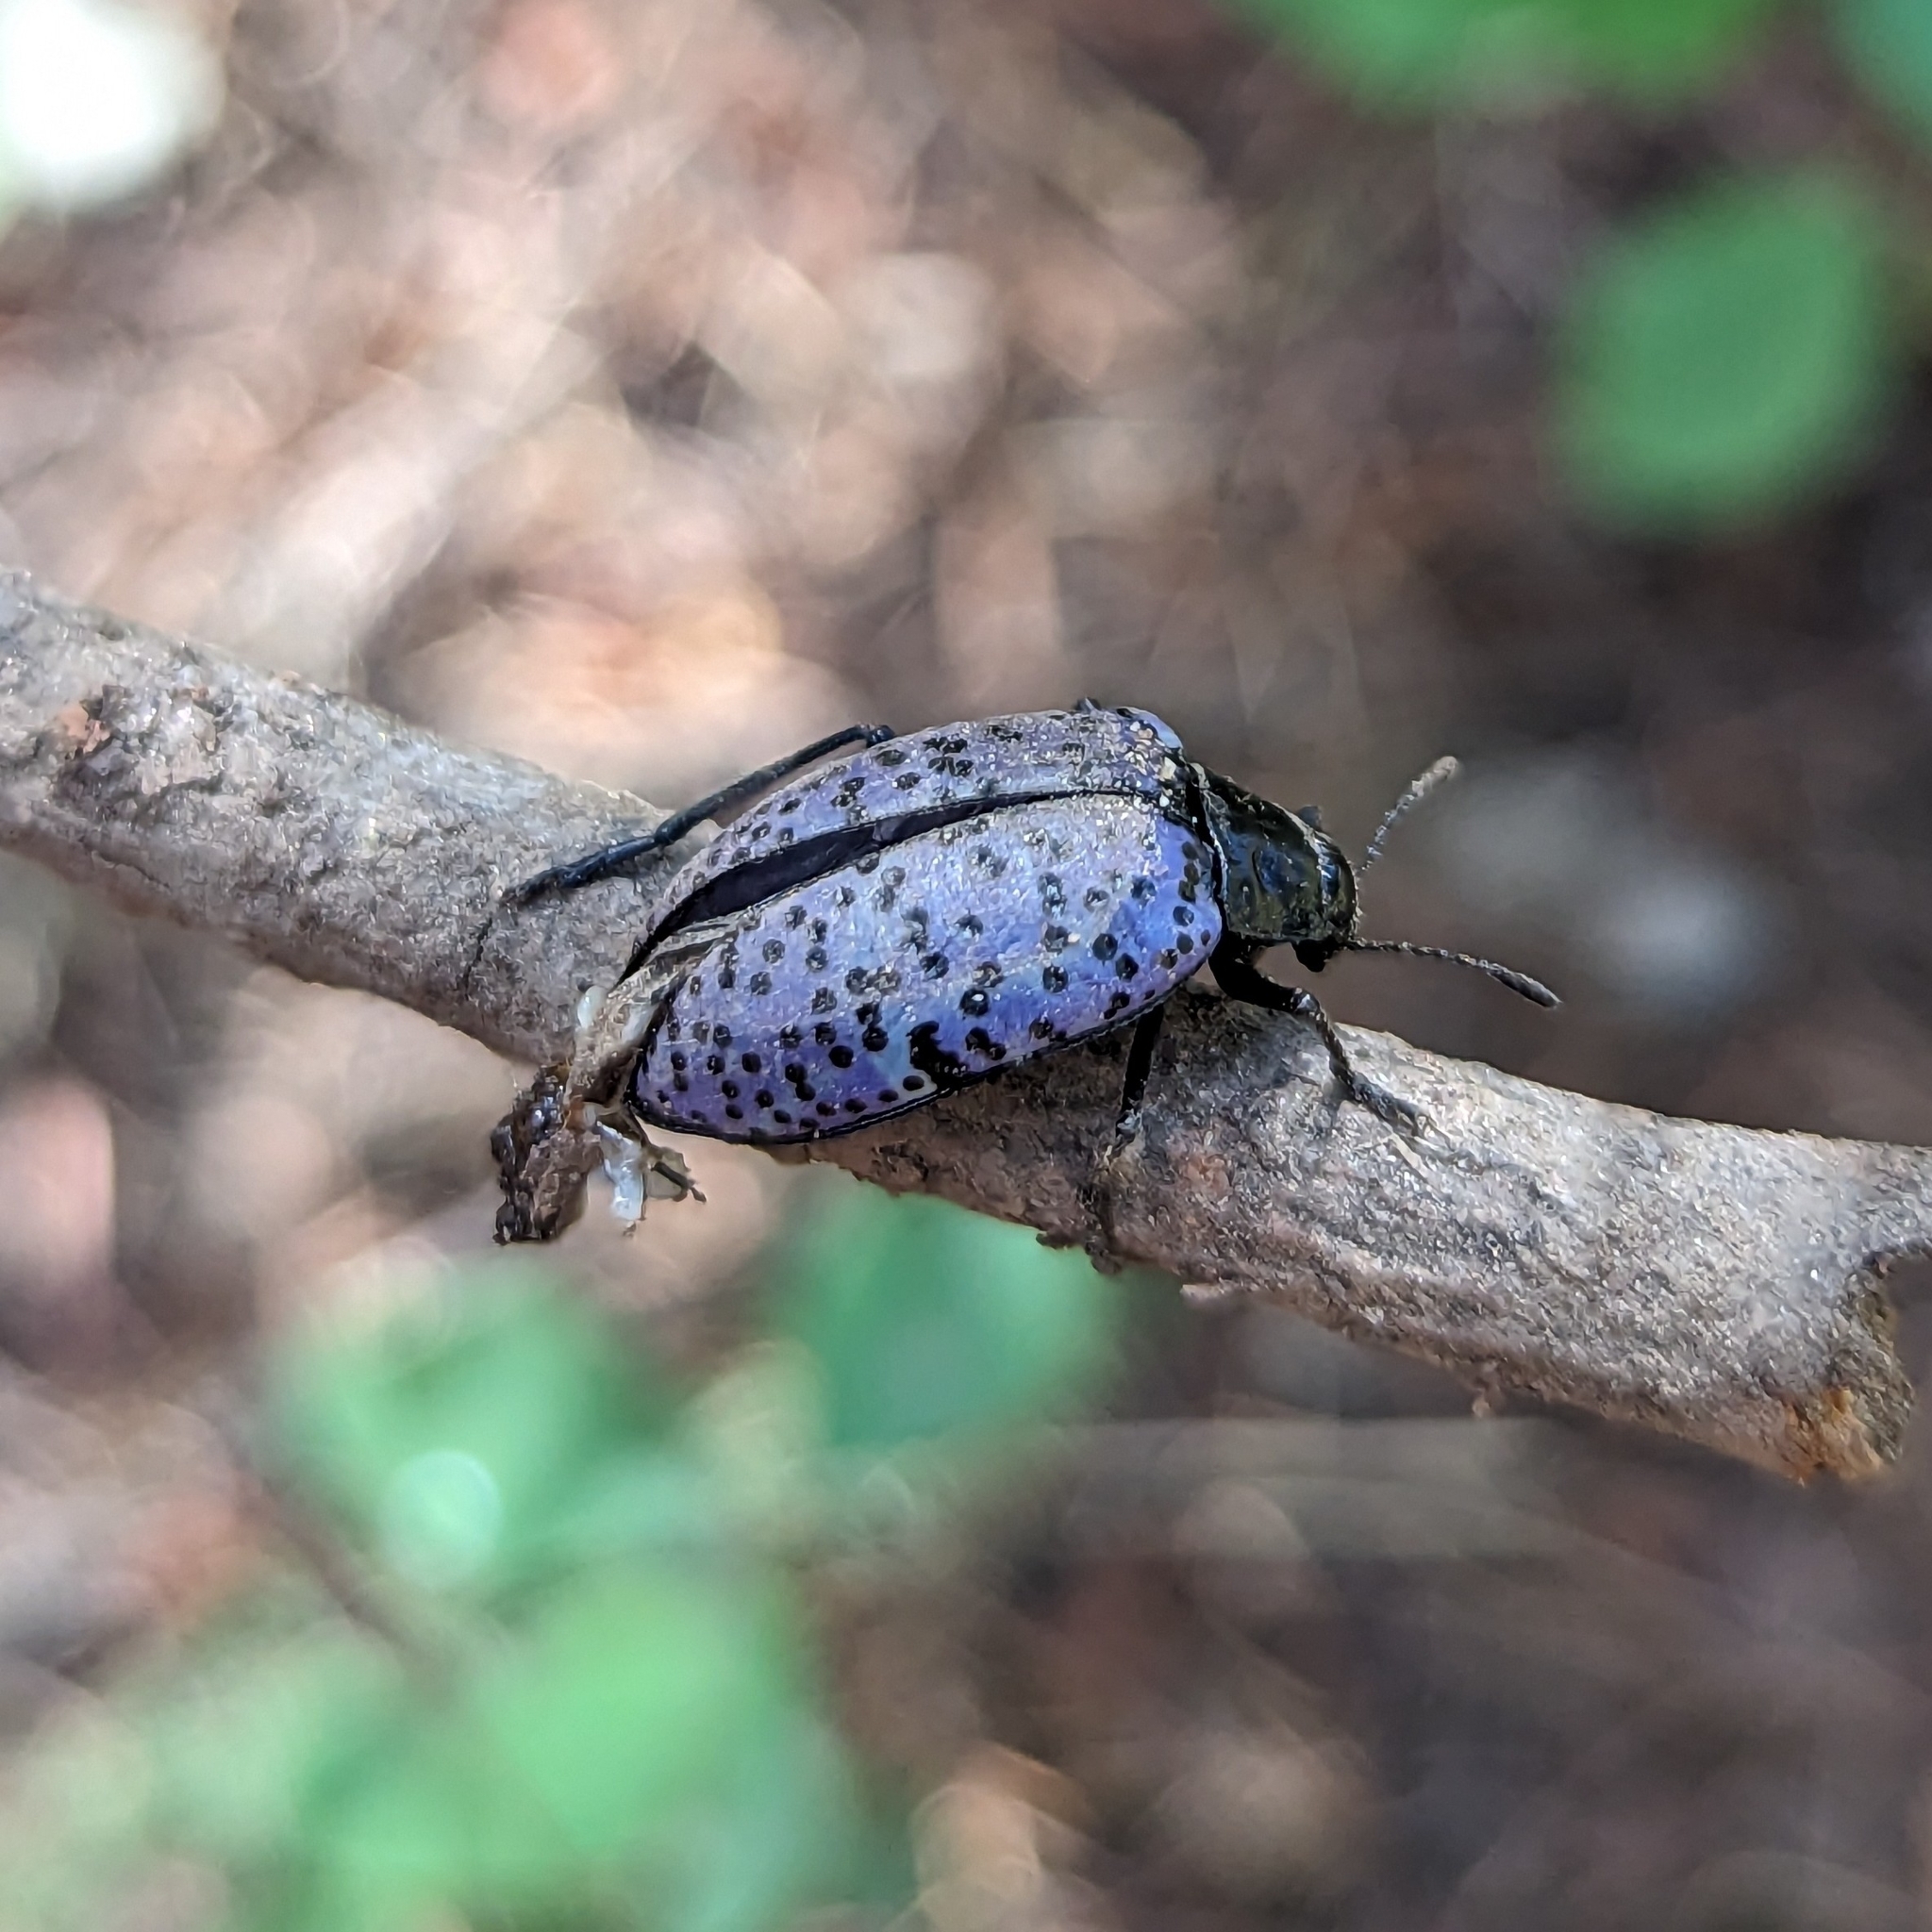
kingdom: Animalia
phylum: Arthropoda
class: Insecta
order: Coleoptera
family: Erotylidae
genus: Gibbifer
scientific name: Gibbifer californicus
